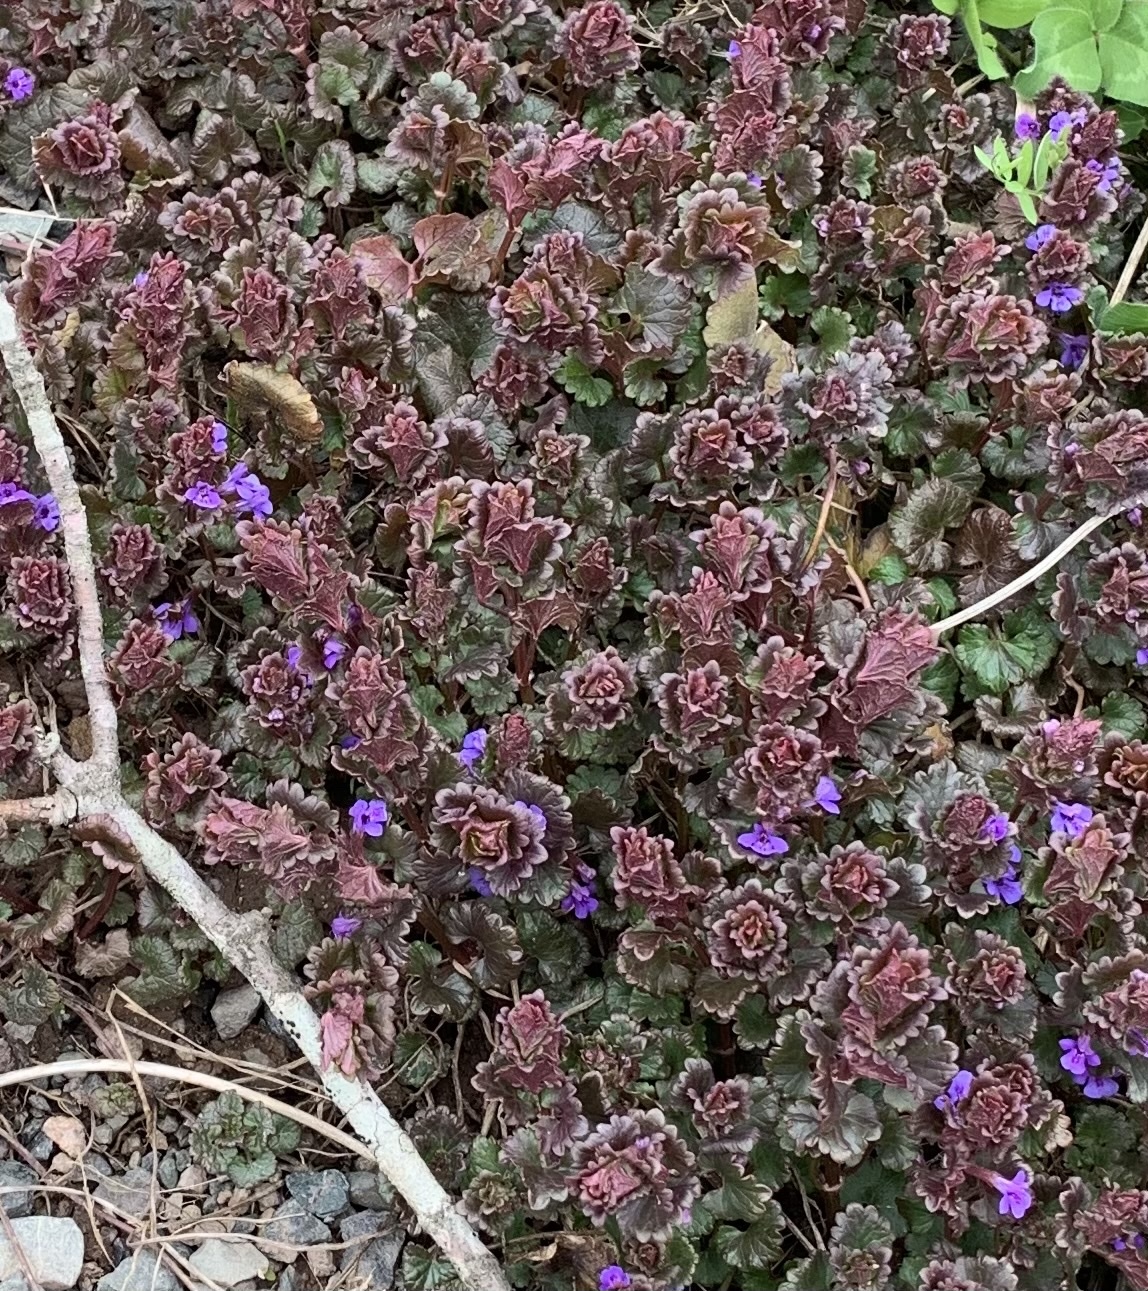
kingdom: Plantae
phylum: Tracheophyta
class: Magnoliopsida
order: Lamiales
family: Lamiaceae
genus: Glechoma
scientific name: Glechoma hederacea
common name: Ground ivy
